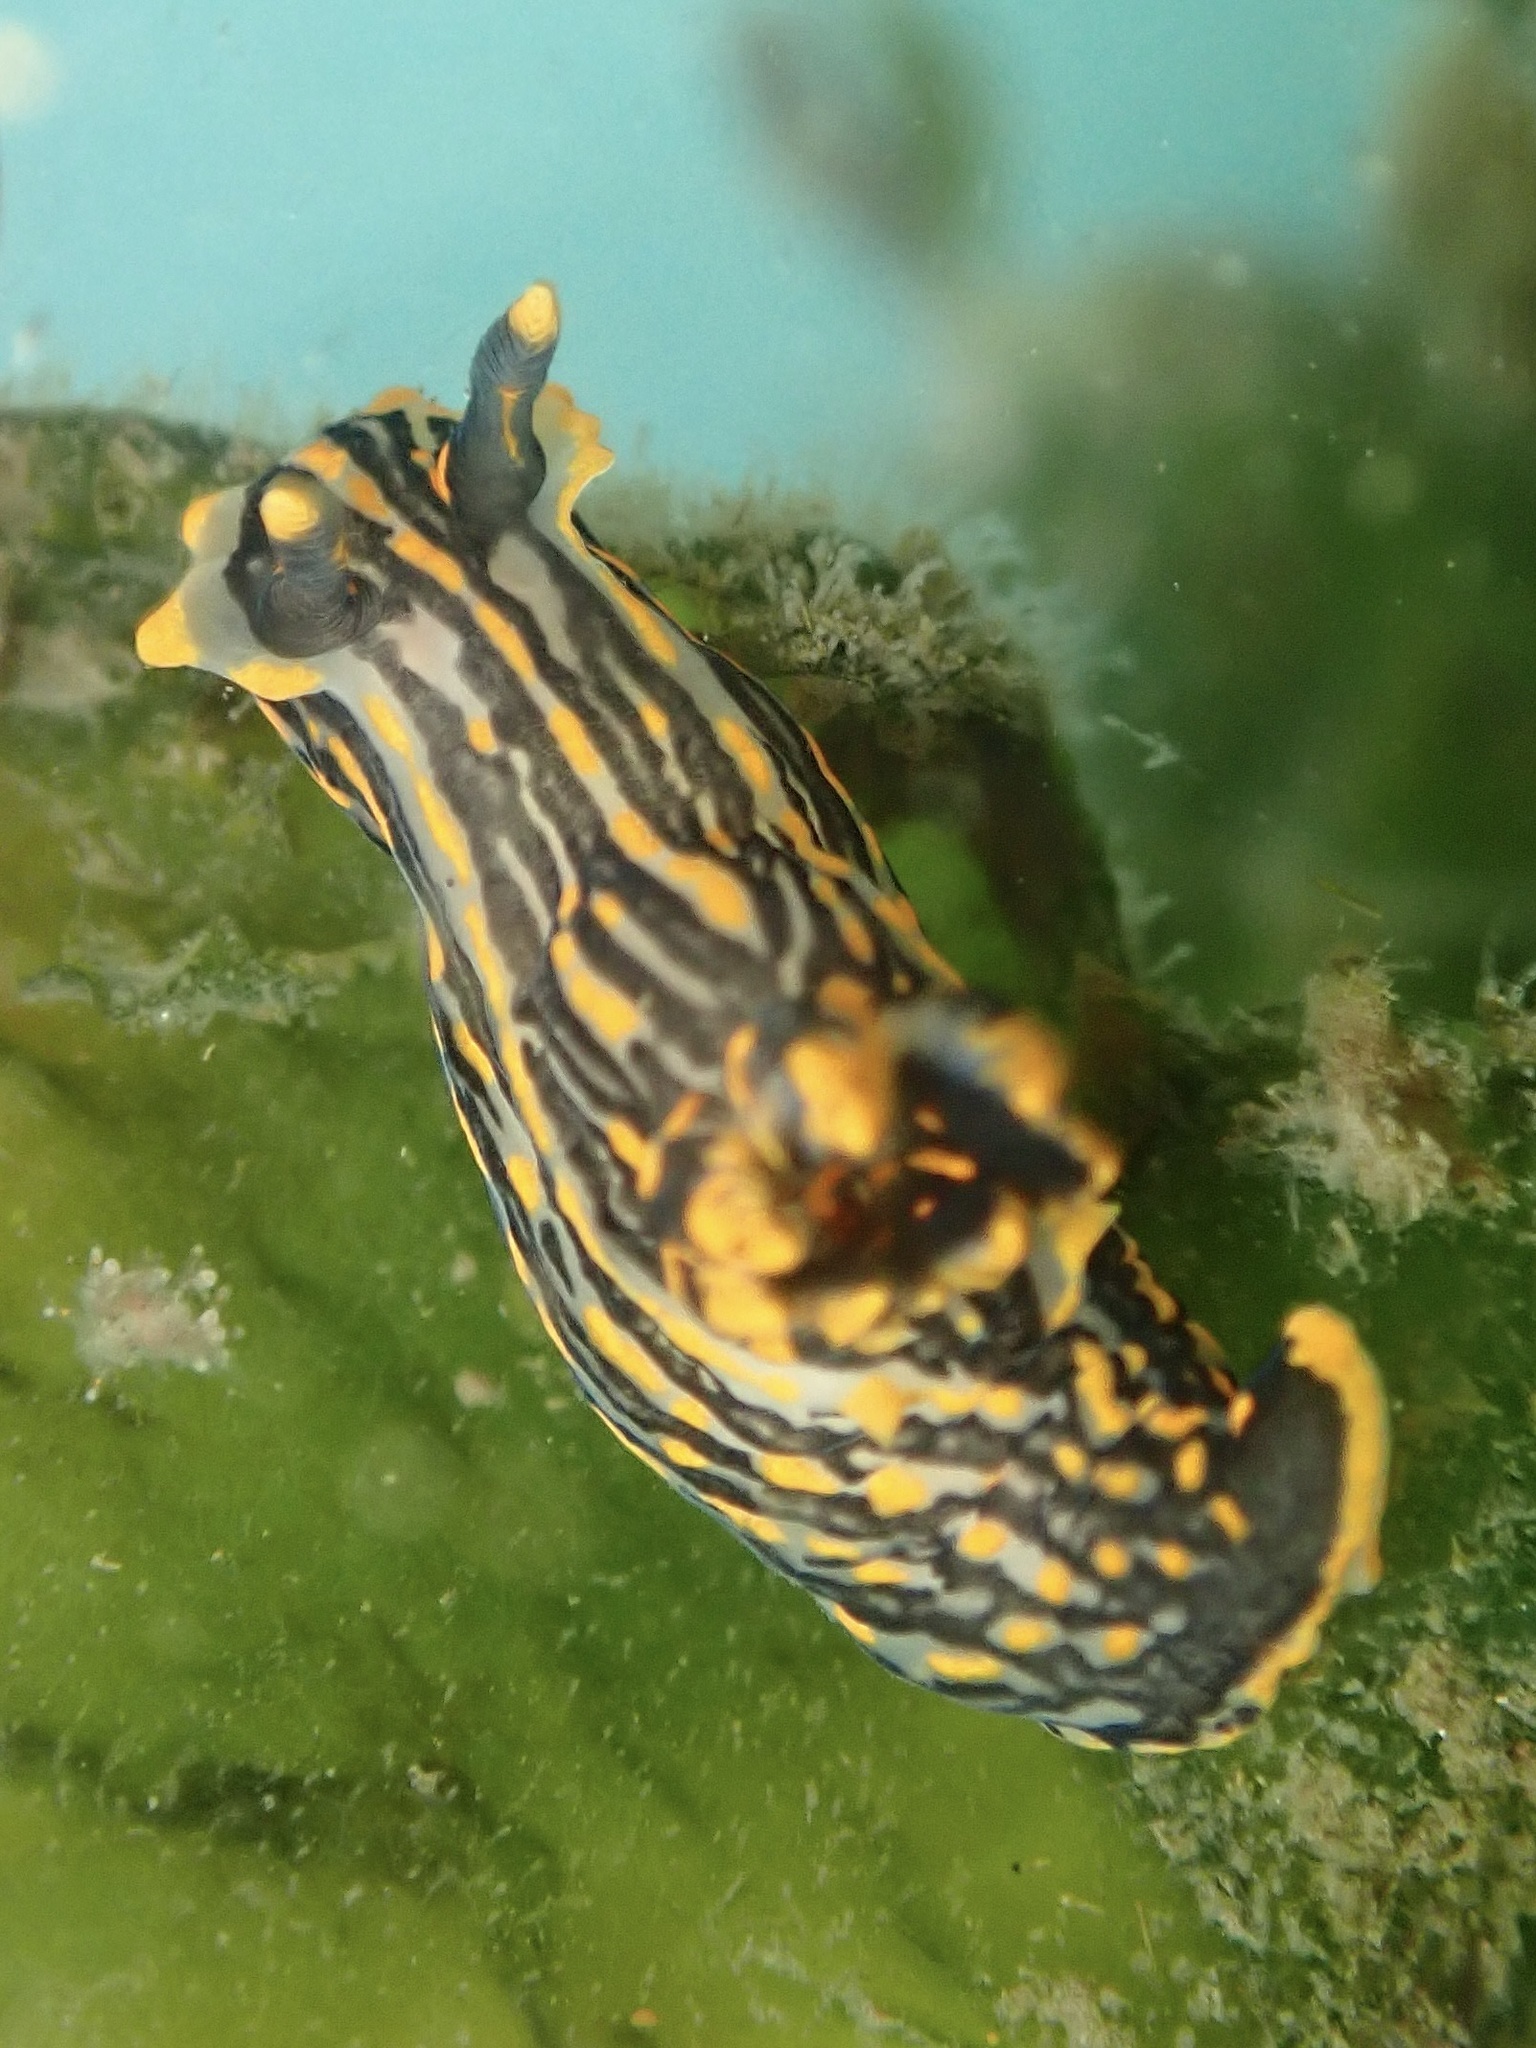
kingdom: Animalia
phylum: Mollusca
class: Gastropoda
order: Nudibranchia
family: Polyceridae
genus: Polycera
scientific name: Polycera atra
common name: Orange-spike polycera
